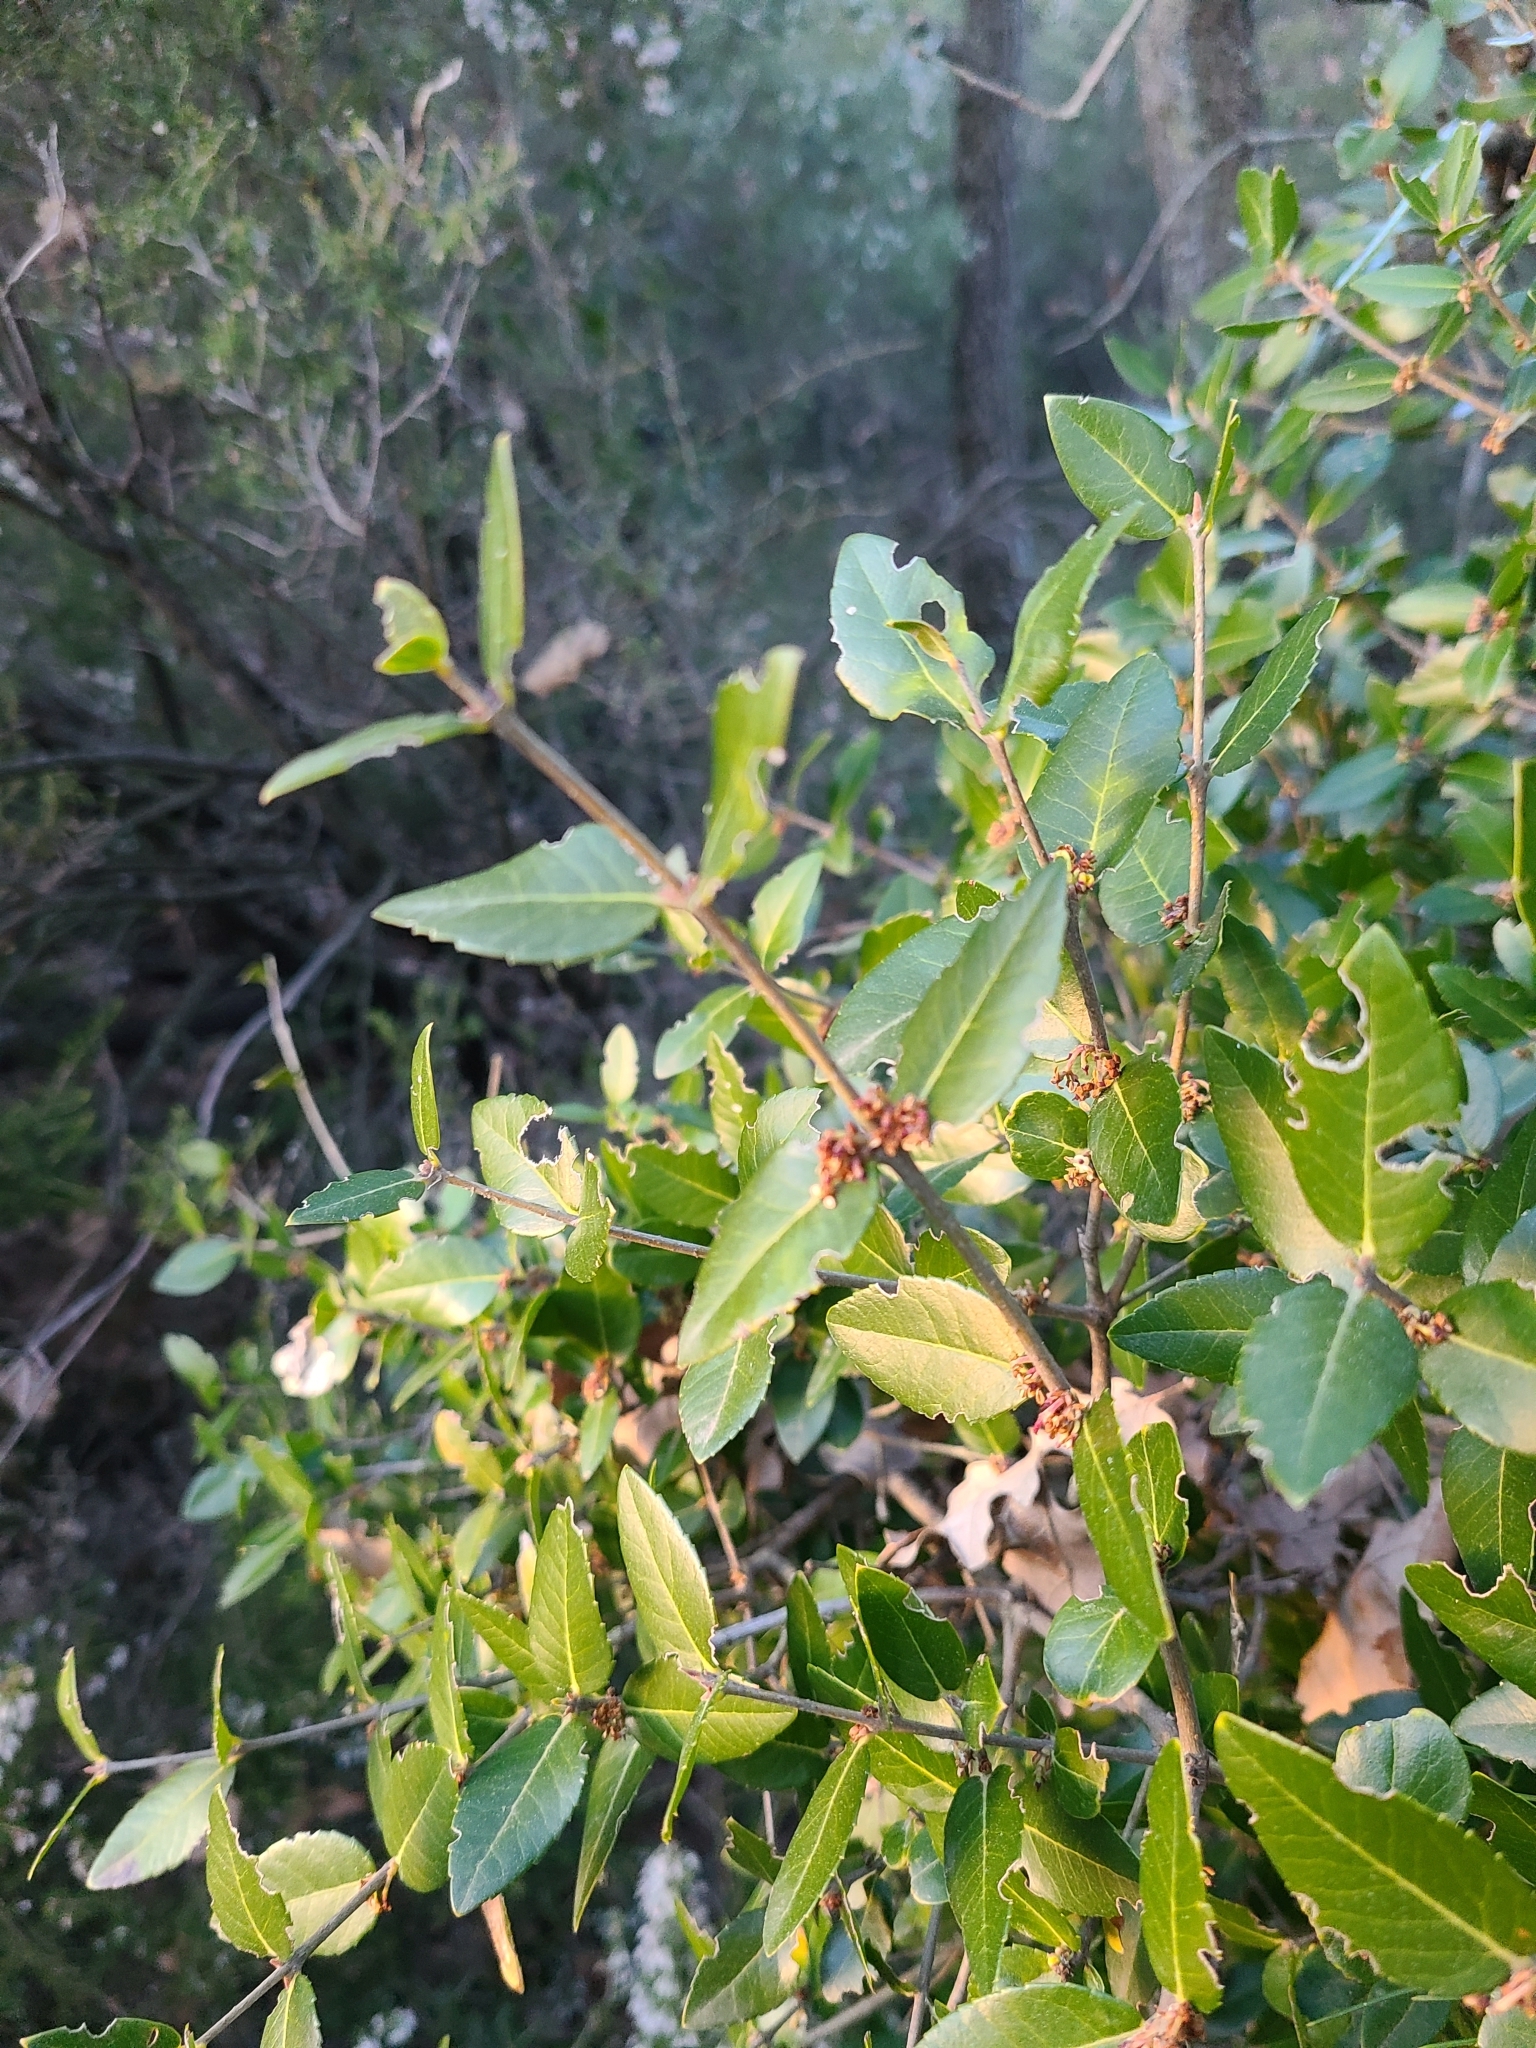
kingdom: Animalia
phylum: Arthropoda
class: Insecta
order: Hymenoptera
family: Tenthredinidae
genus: Silliana
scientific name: Silliana lhommei
